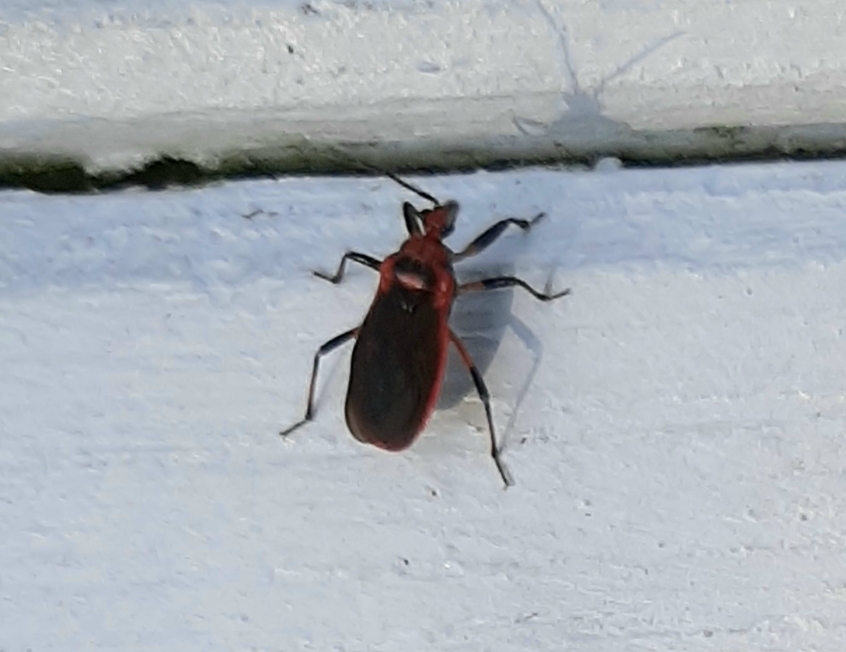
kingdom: Animalia
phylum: Arthropoda
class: Insecta
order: Hemiptera
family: Reduviidae
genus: Rhiginia
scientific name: Rhiginia cruciata
